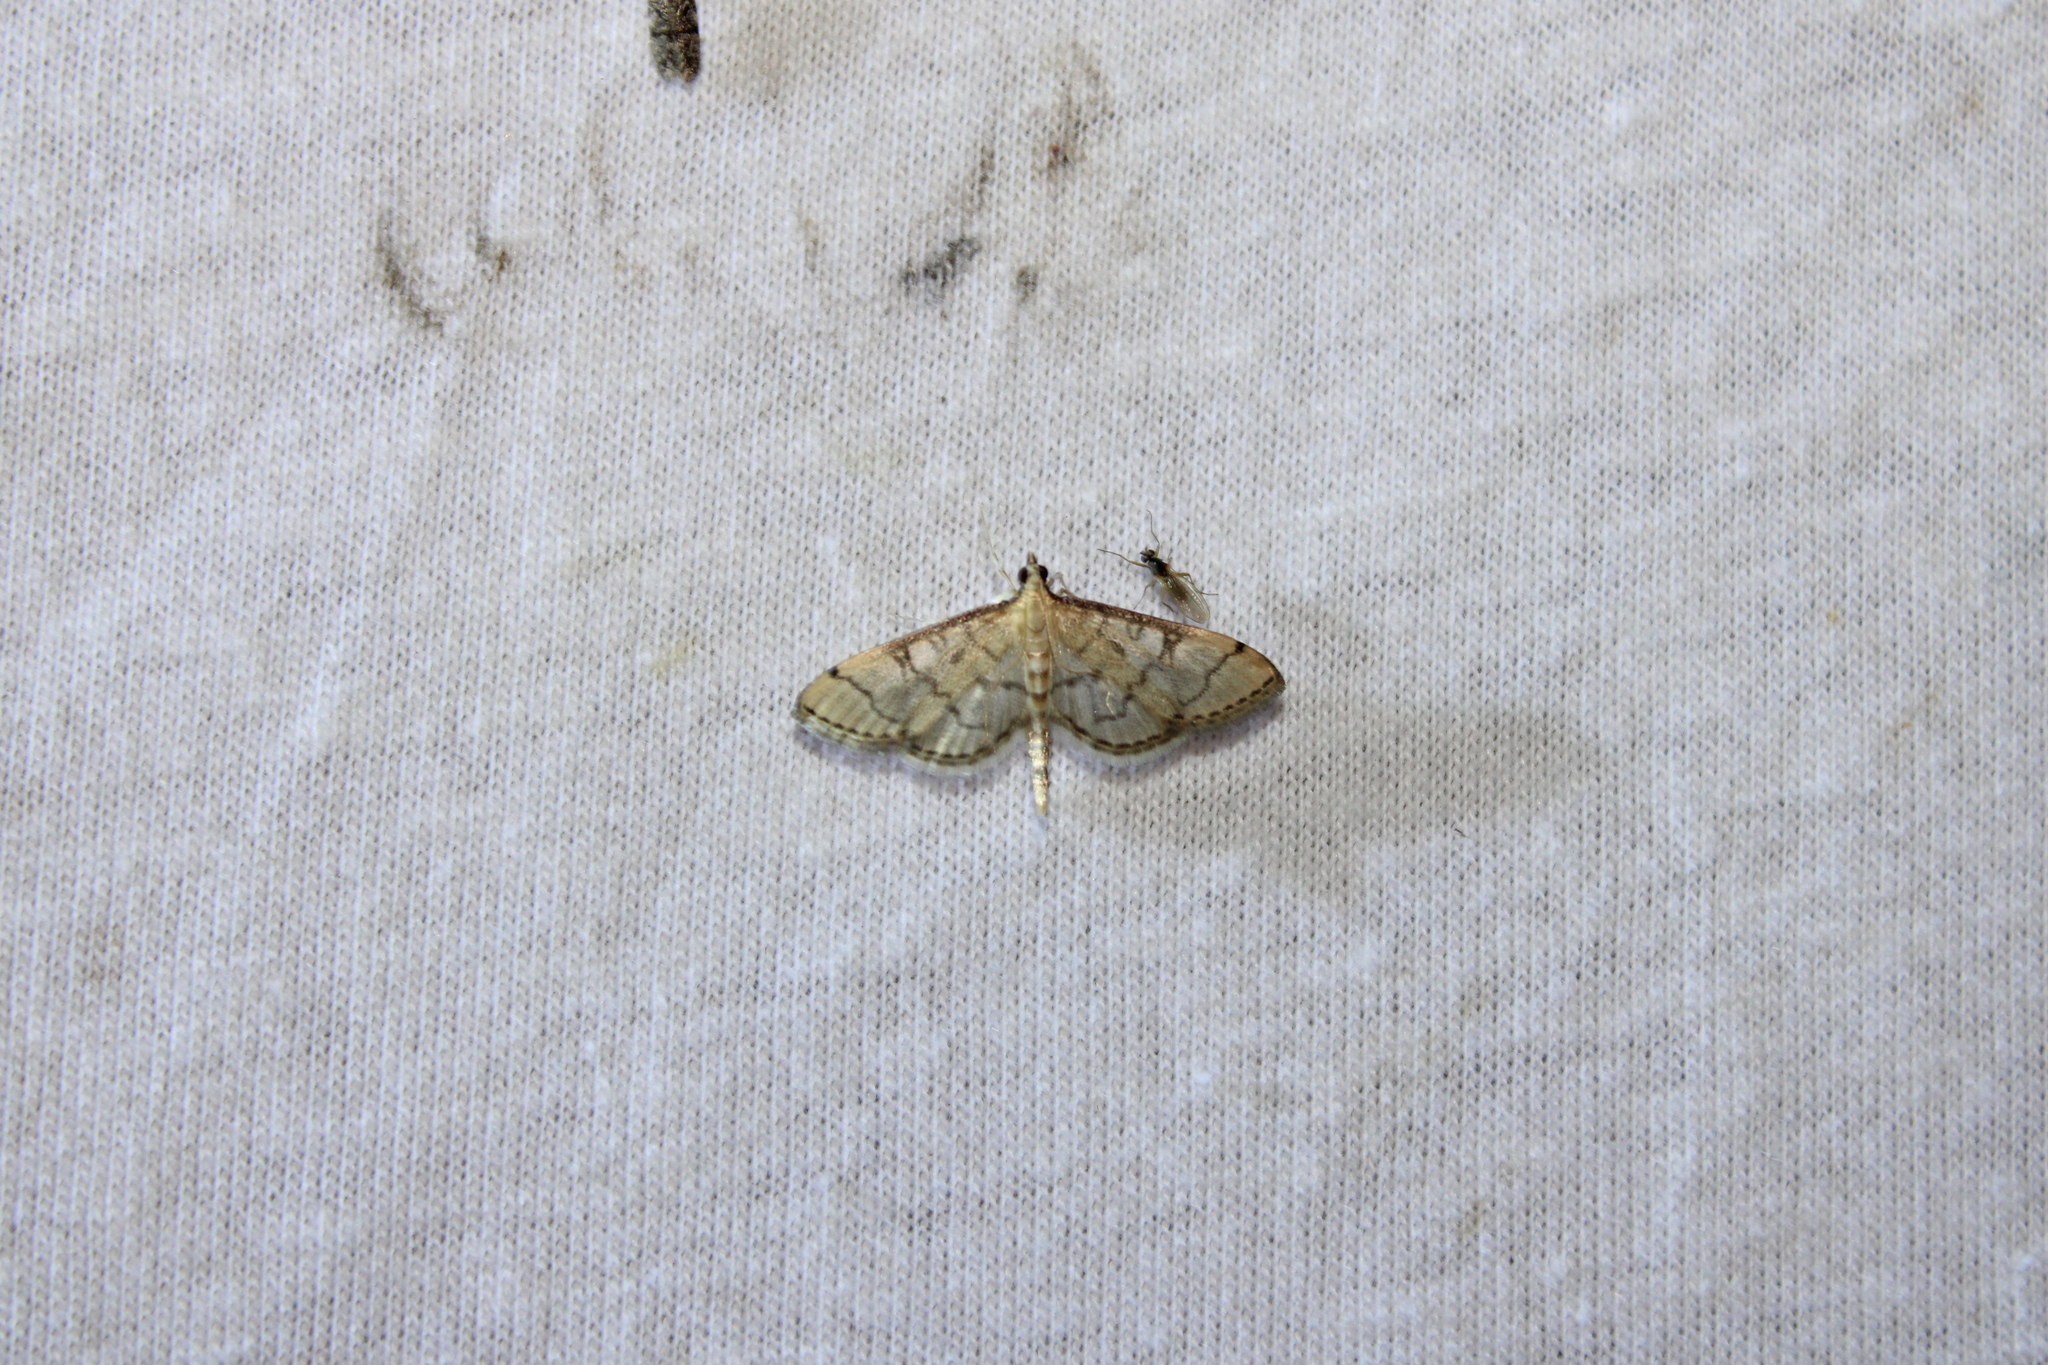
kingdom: Animalia
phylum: Arthropoda
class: Insecta
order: Lepidoptera
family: Crambidae
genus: Lamprosema
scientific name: Lamprosema Blepharomastix ranalis
